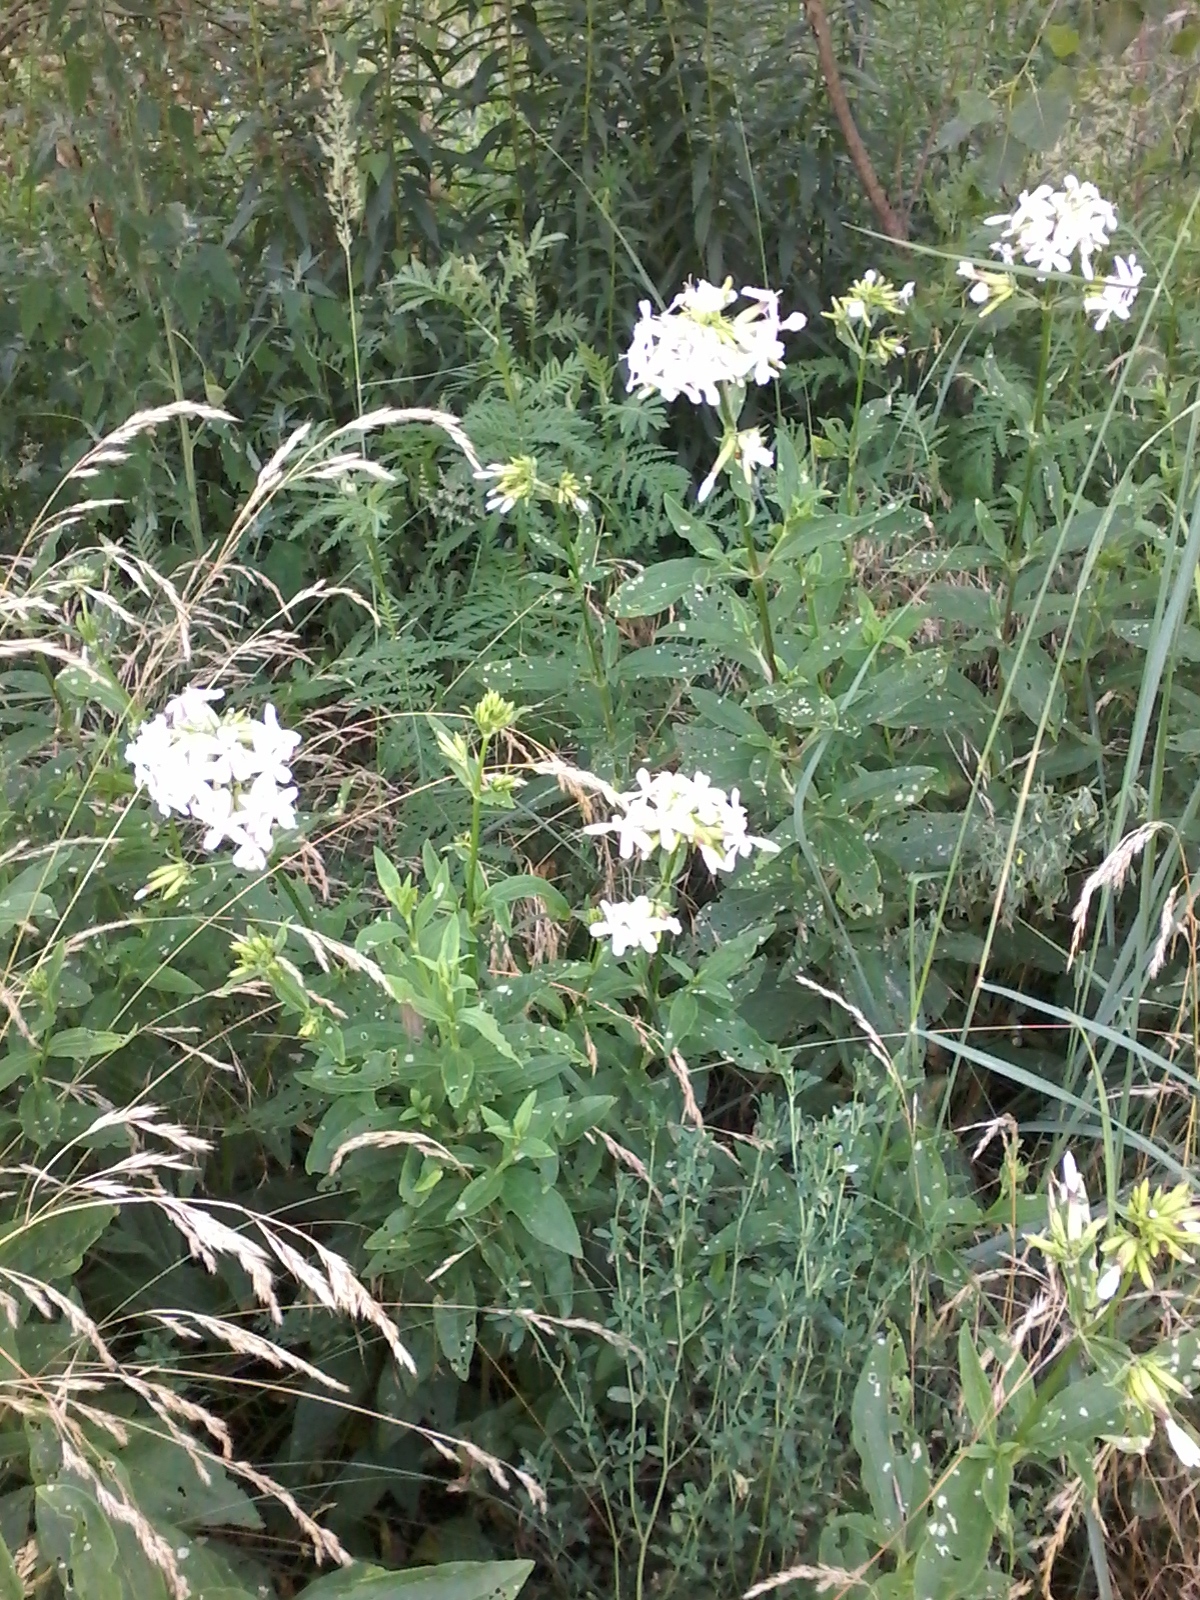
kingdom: Plantae
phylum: Tracheophyta
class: Magnoliopsida
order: Caryophyllales
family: Caryophyllaceae
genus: Saponaria
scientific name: Saponaria officinalis
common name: Soapwort
